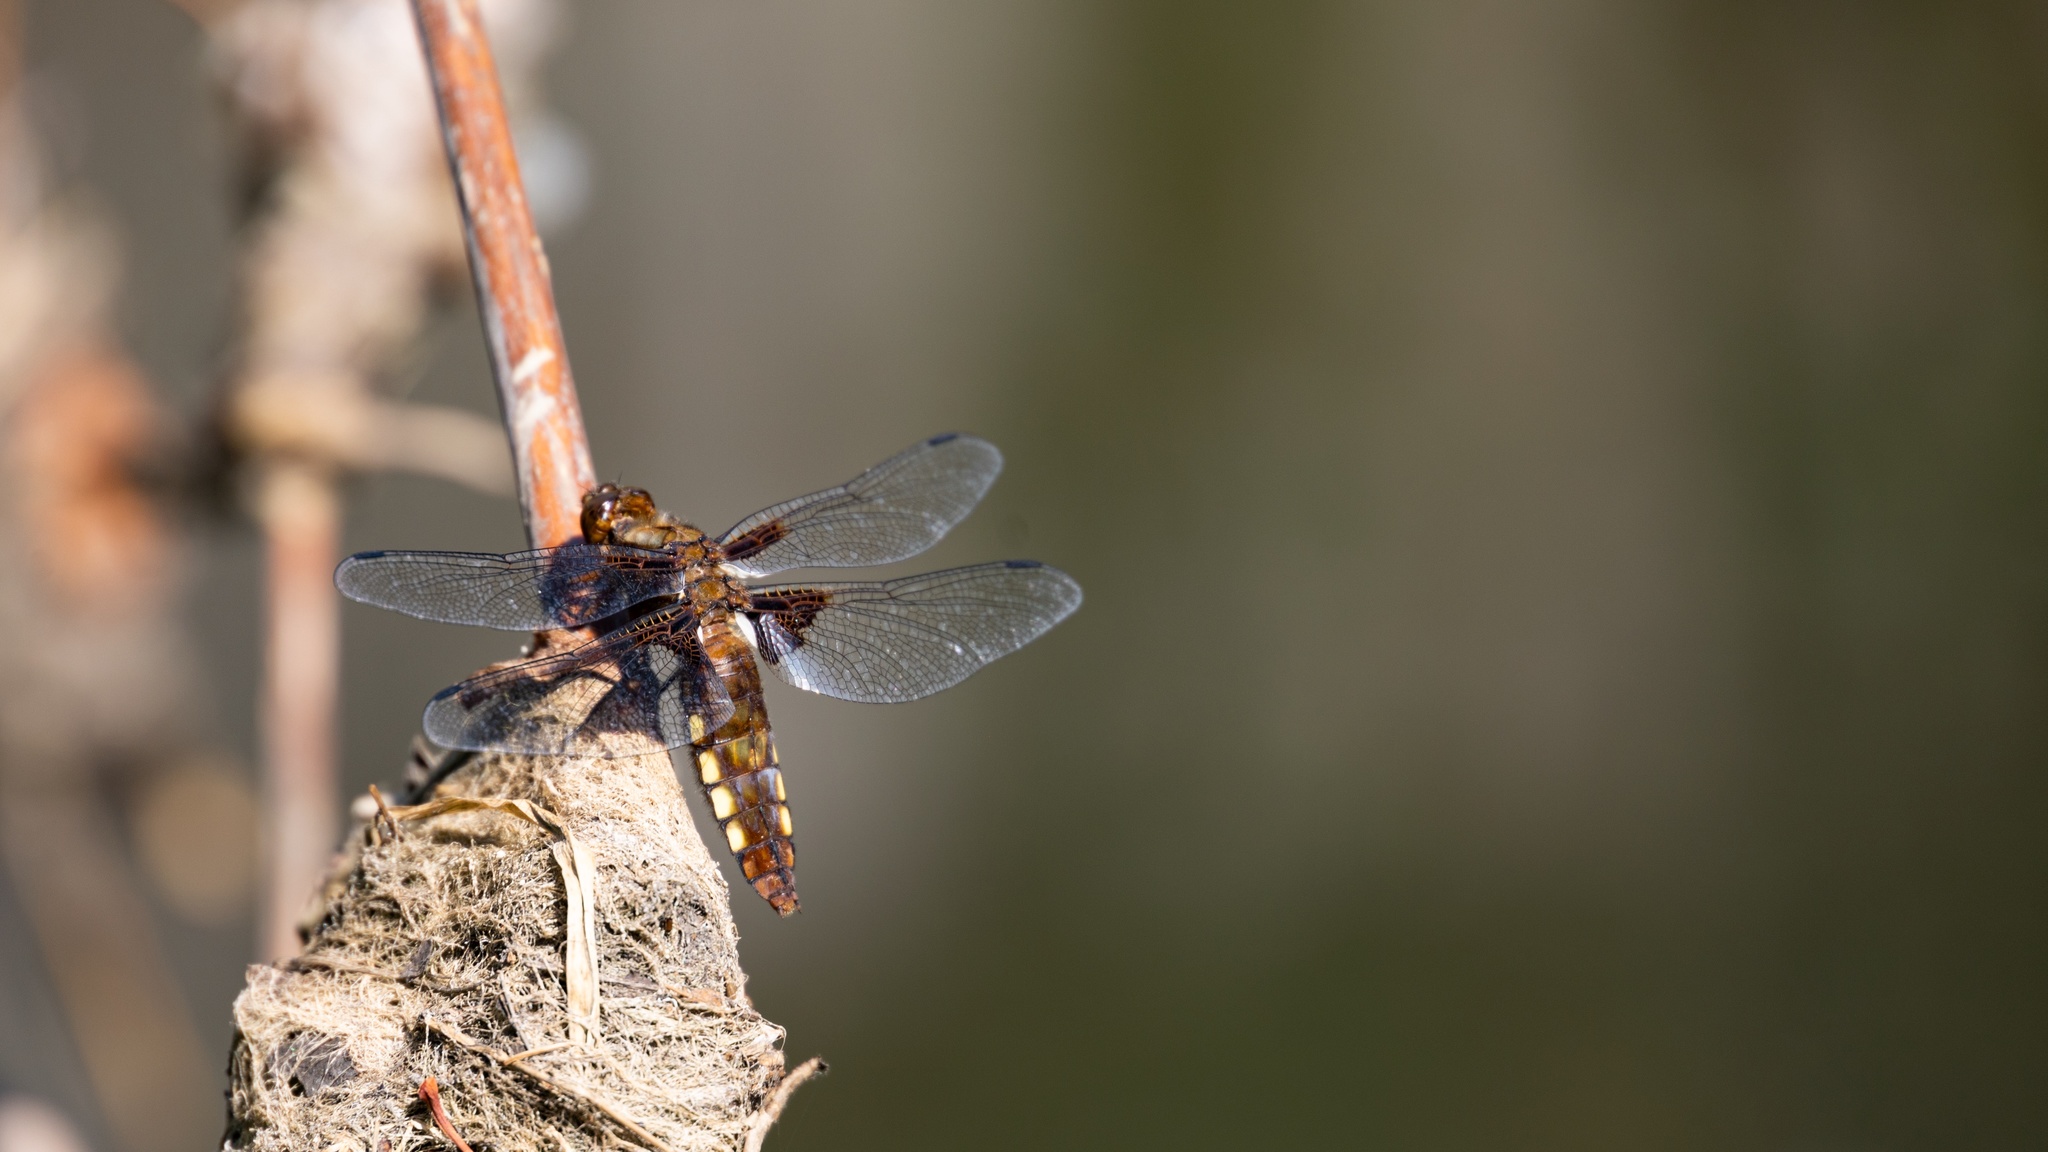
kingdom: Animalia
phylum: Arthropoda
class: Insecta
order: Odonata
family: Libellulidae
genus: Libellula
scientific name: Libellula depressa
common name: Broad-bodied chaser
